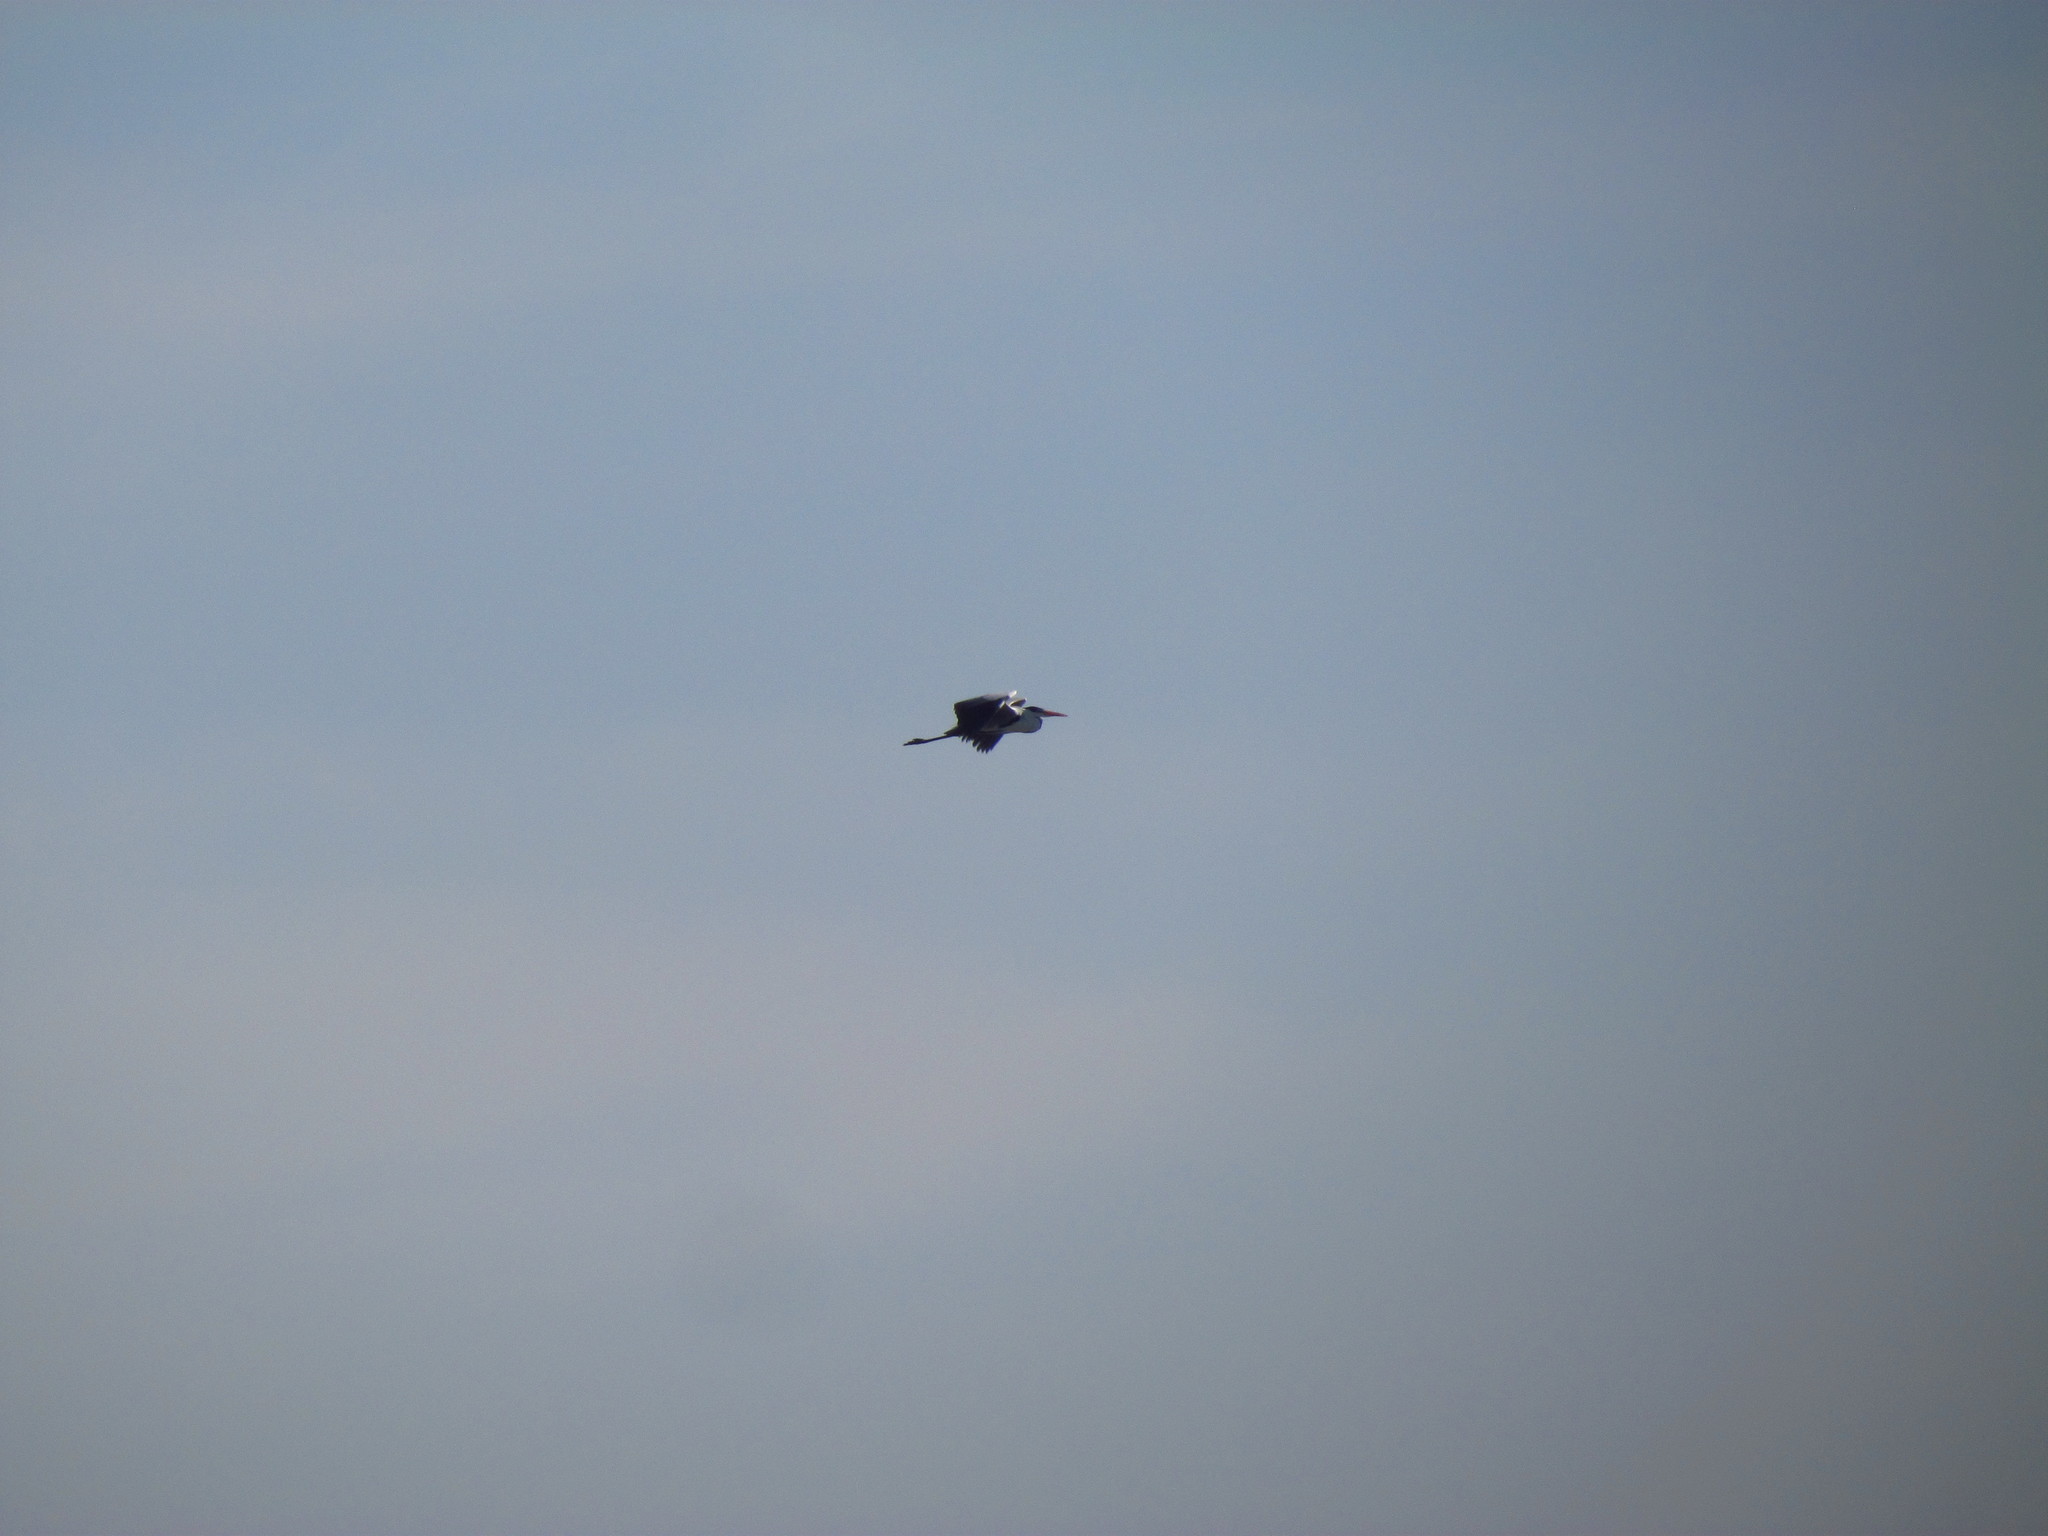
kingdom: Animalia
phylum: Chordata
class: Aves
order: Pelecaniformes
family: Ardeidae
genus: Ardea
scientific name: Ardea cocoi
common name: Cocoi heron
